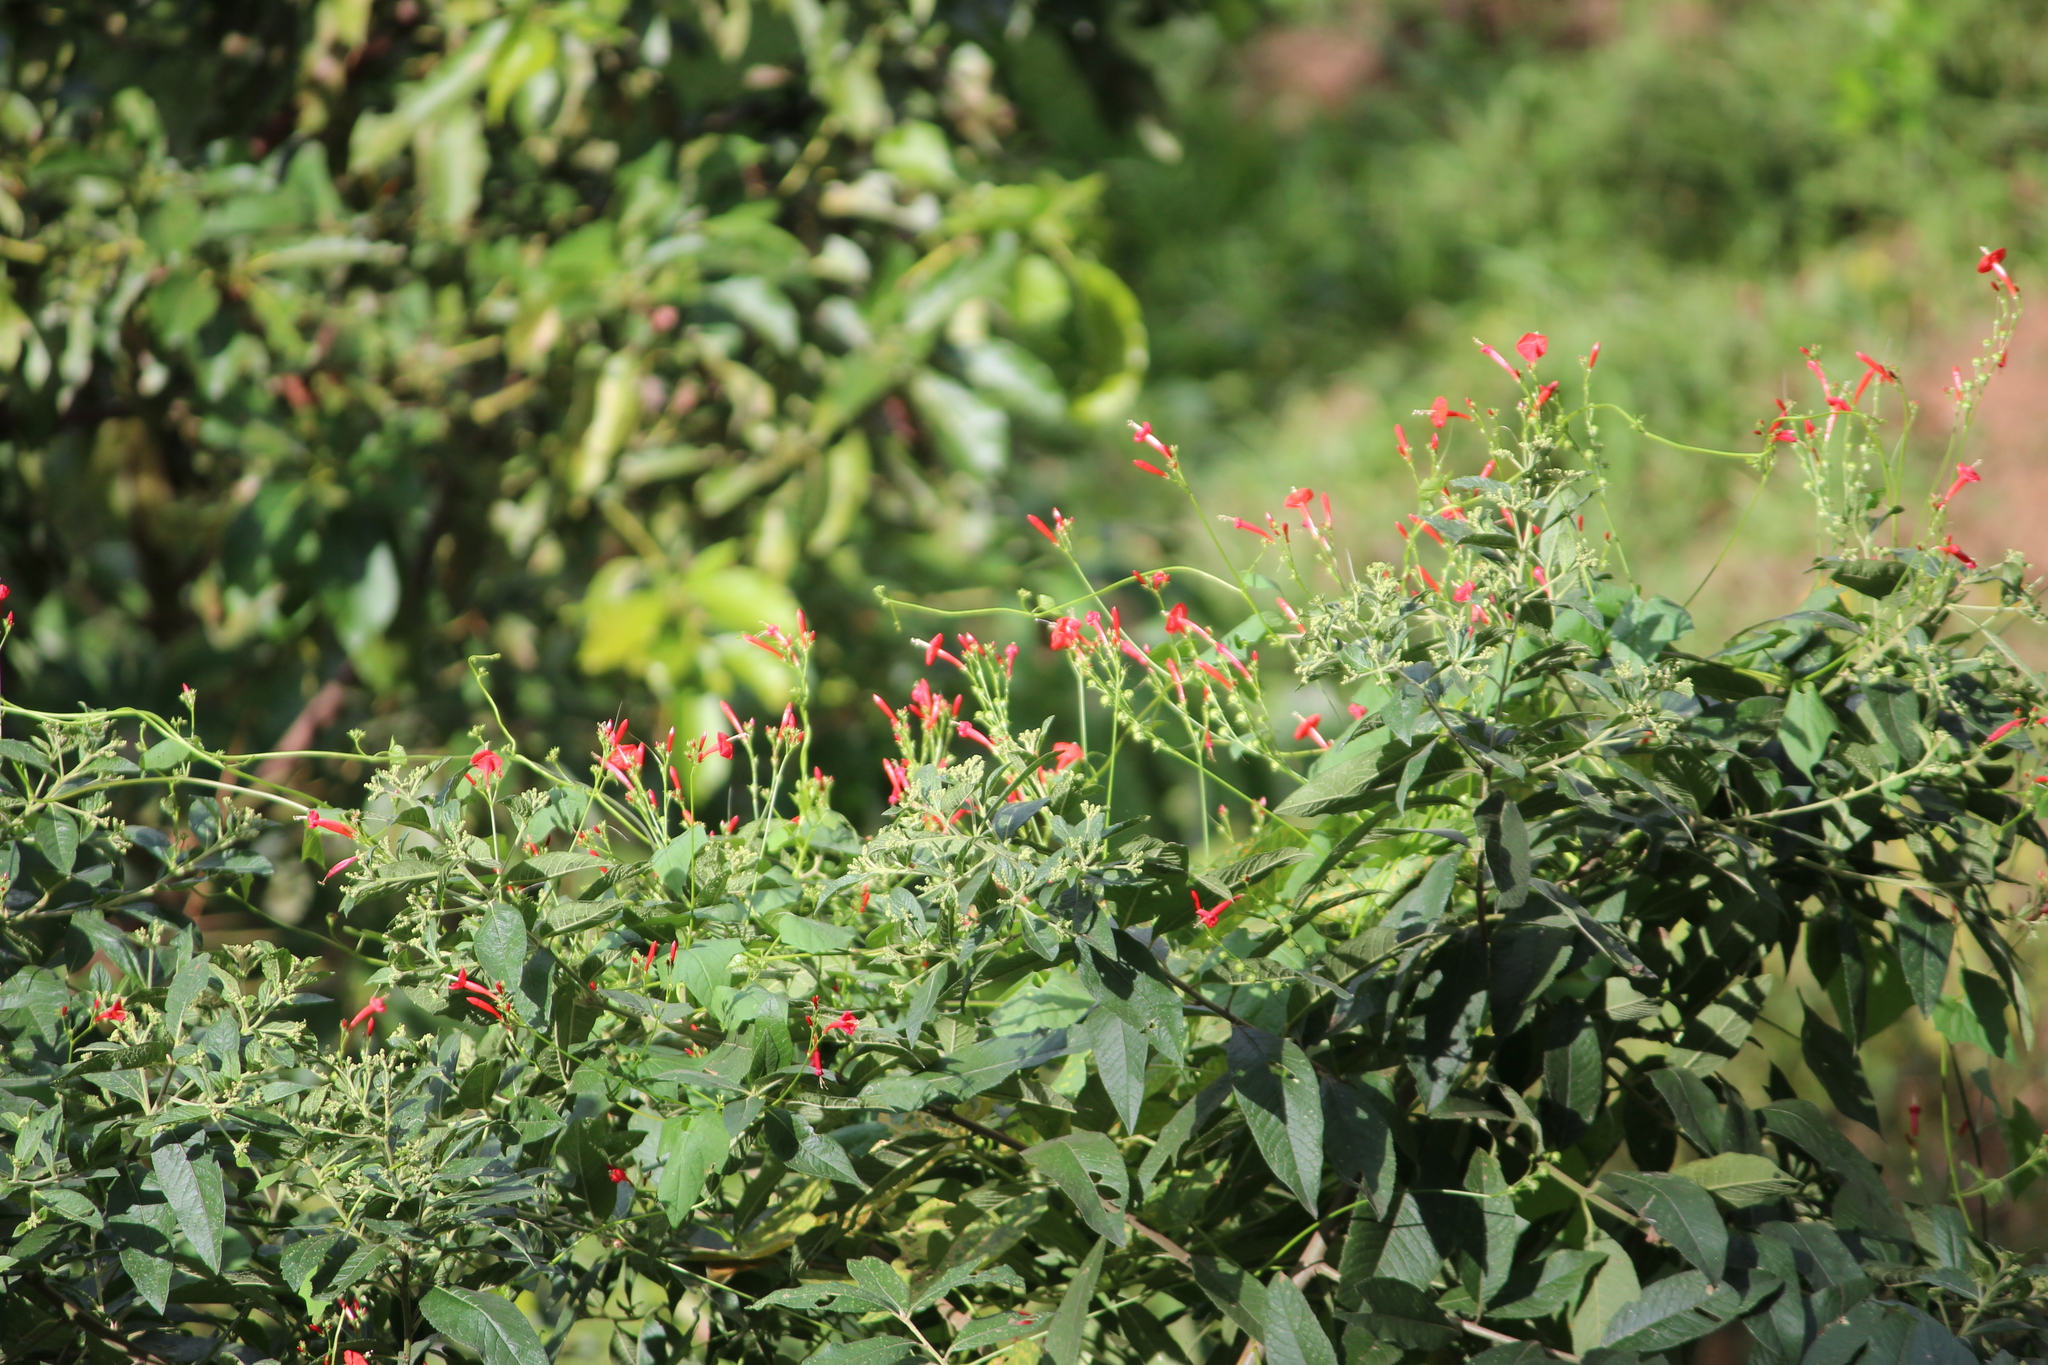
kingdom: Plantae
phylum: Tracheophyta
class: Magnoliopsida
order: Solanales
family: Convolvulaceae
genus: Ipomoea
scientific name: Ipomoea hederifolia
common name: Ivy-leaf morning-glory
